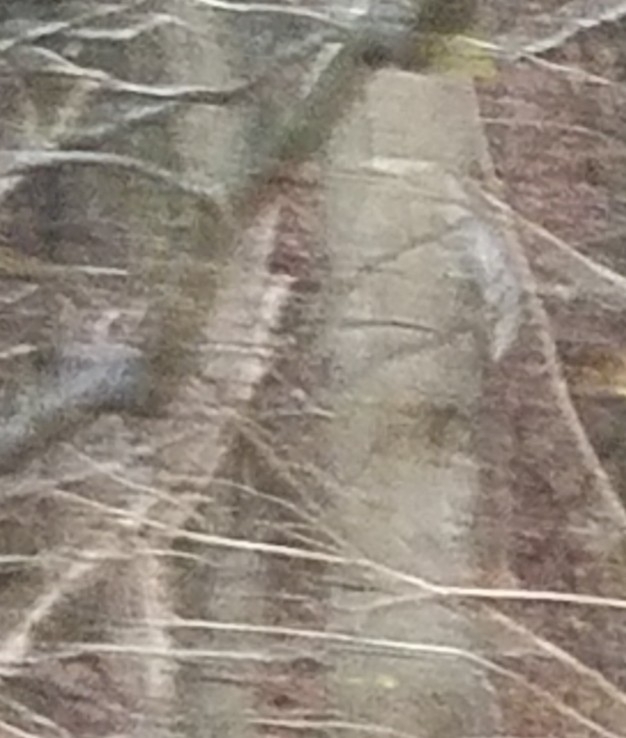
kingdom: Animalia
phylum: Chordata
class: Mammalia
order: Artiodactyla
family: Cervidae
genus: Odocoileus
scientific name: Odocoileus virginianus
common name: White-tailed deer
